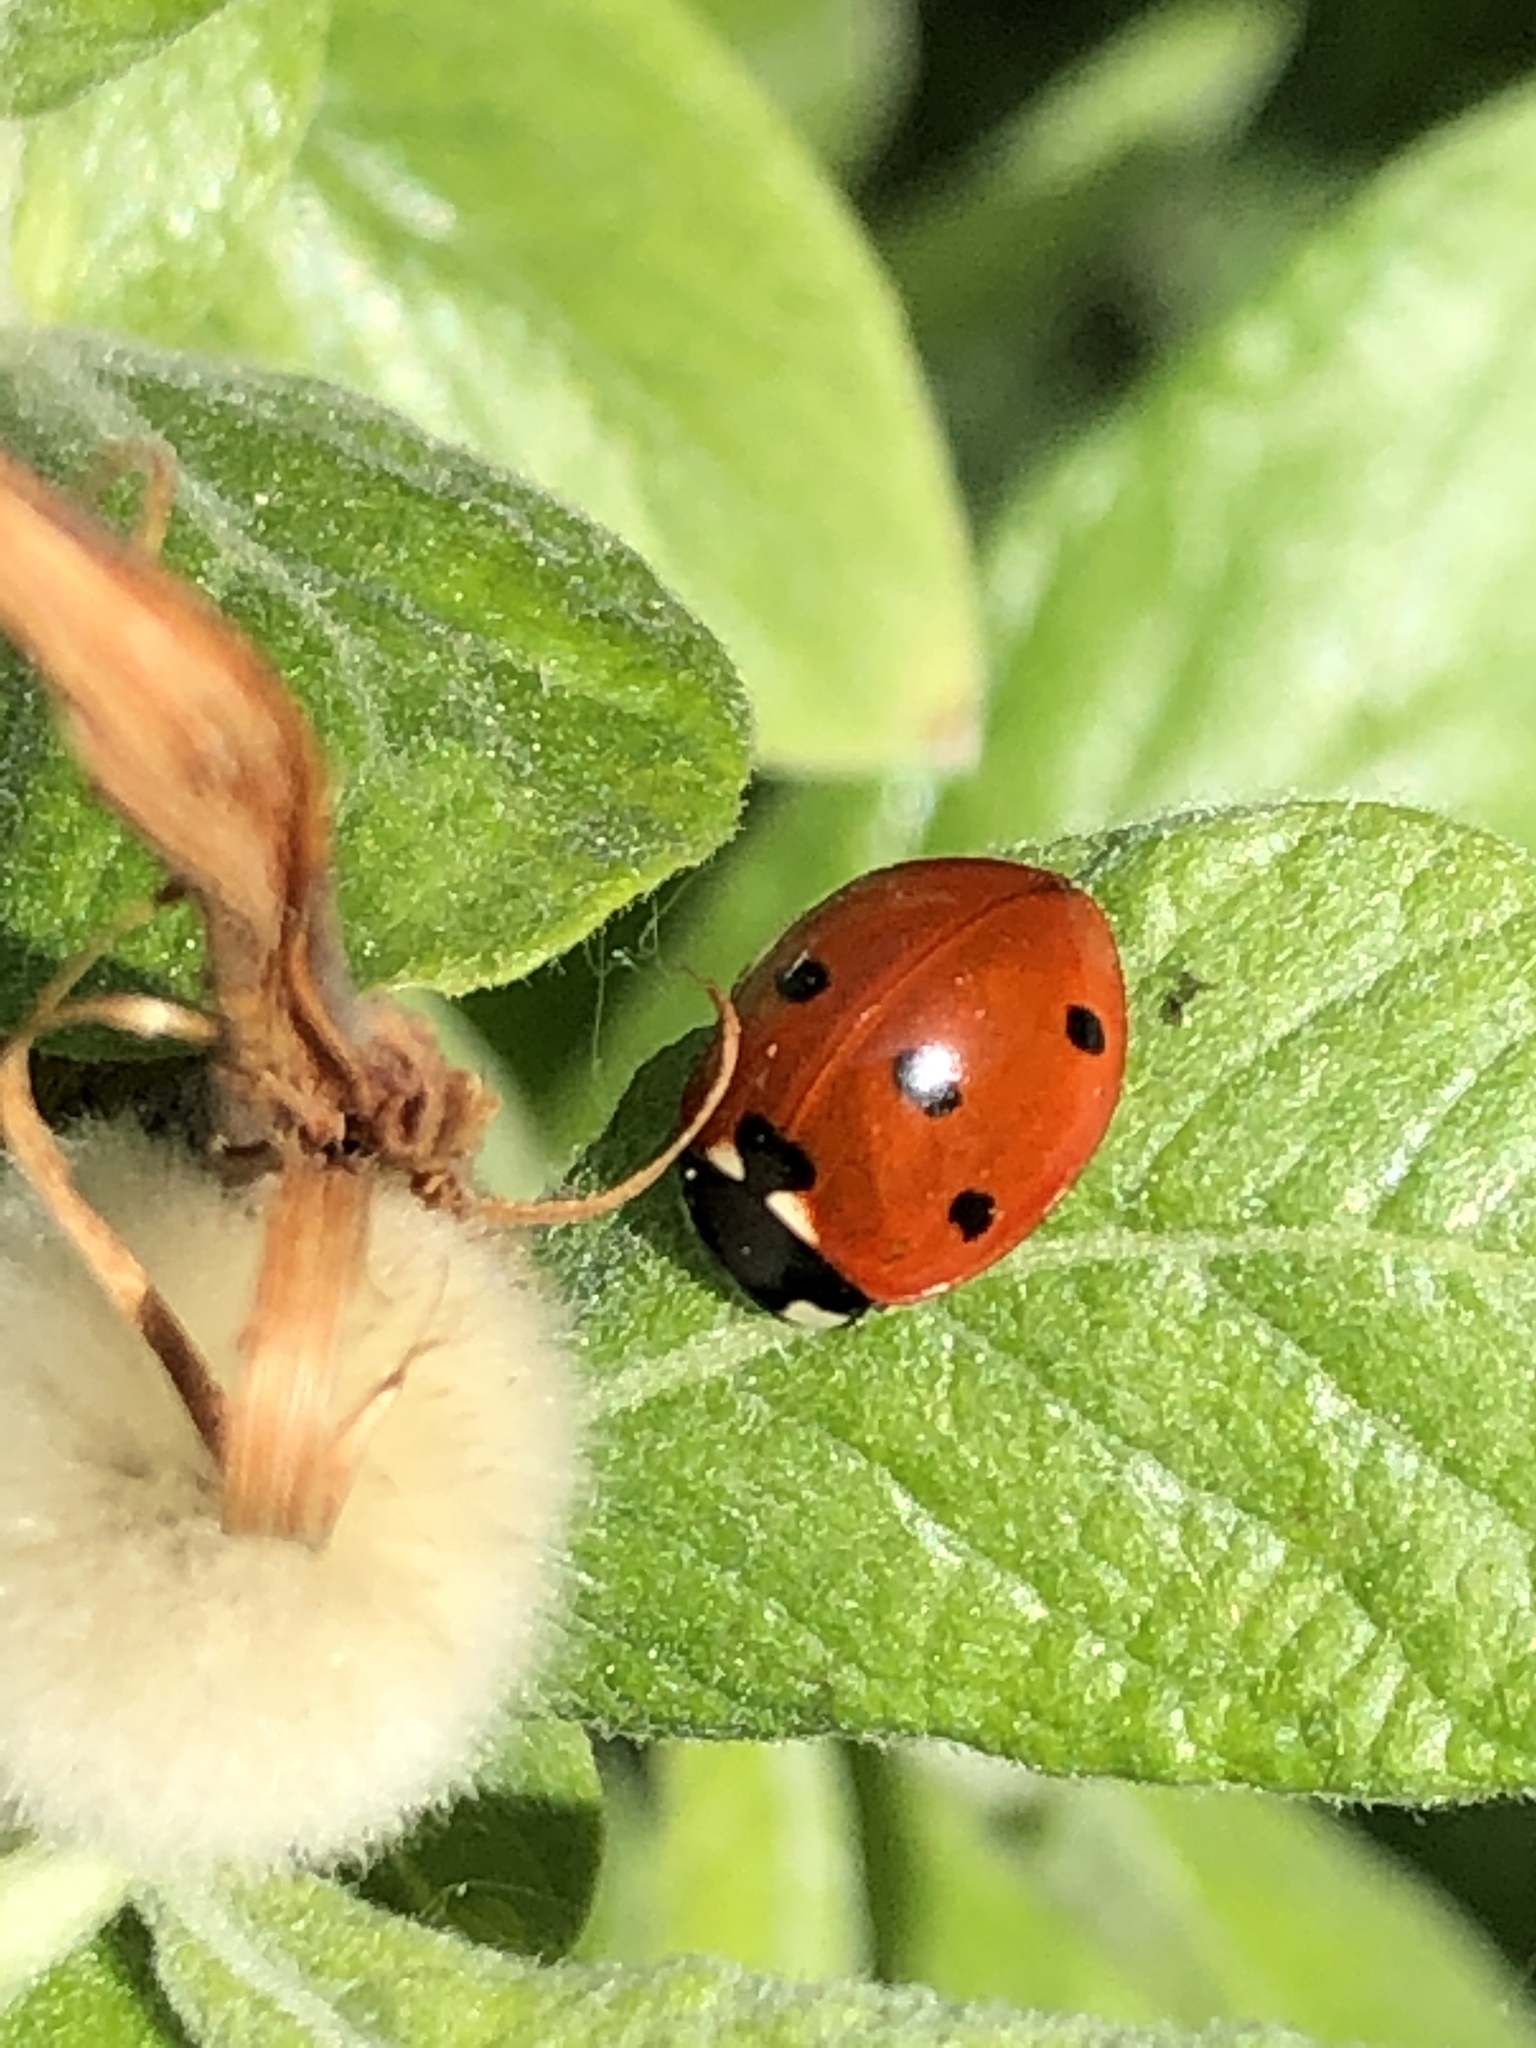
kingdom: Animalia
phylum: Arthropoda
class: Insecta
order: Coleoptera
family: Coccinellidae
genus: Coccinella
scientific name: Coccinella septempunctata
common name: Sevenspotted lady beetle
